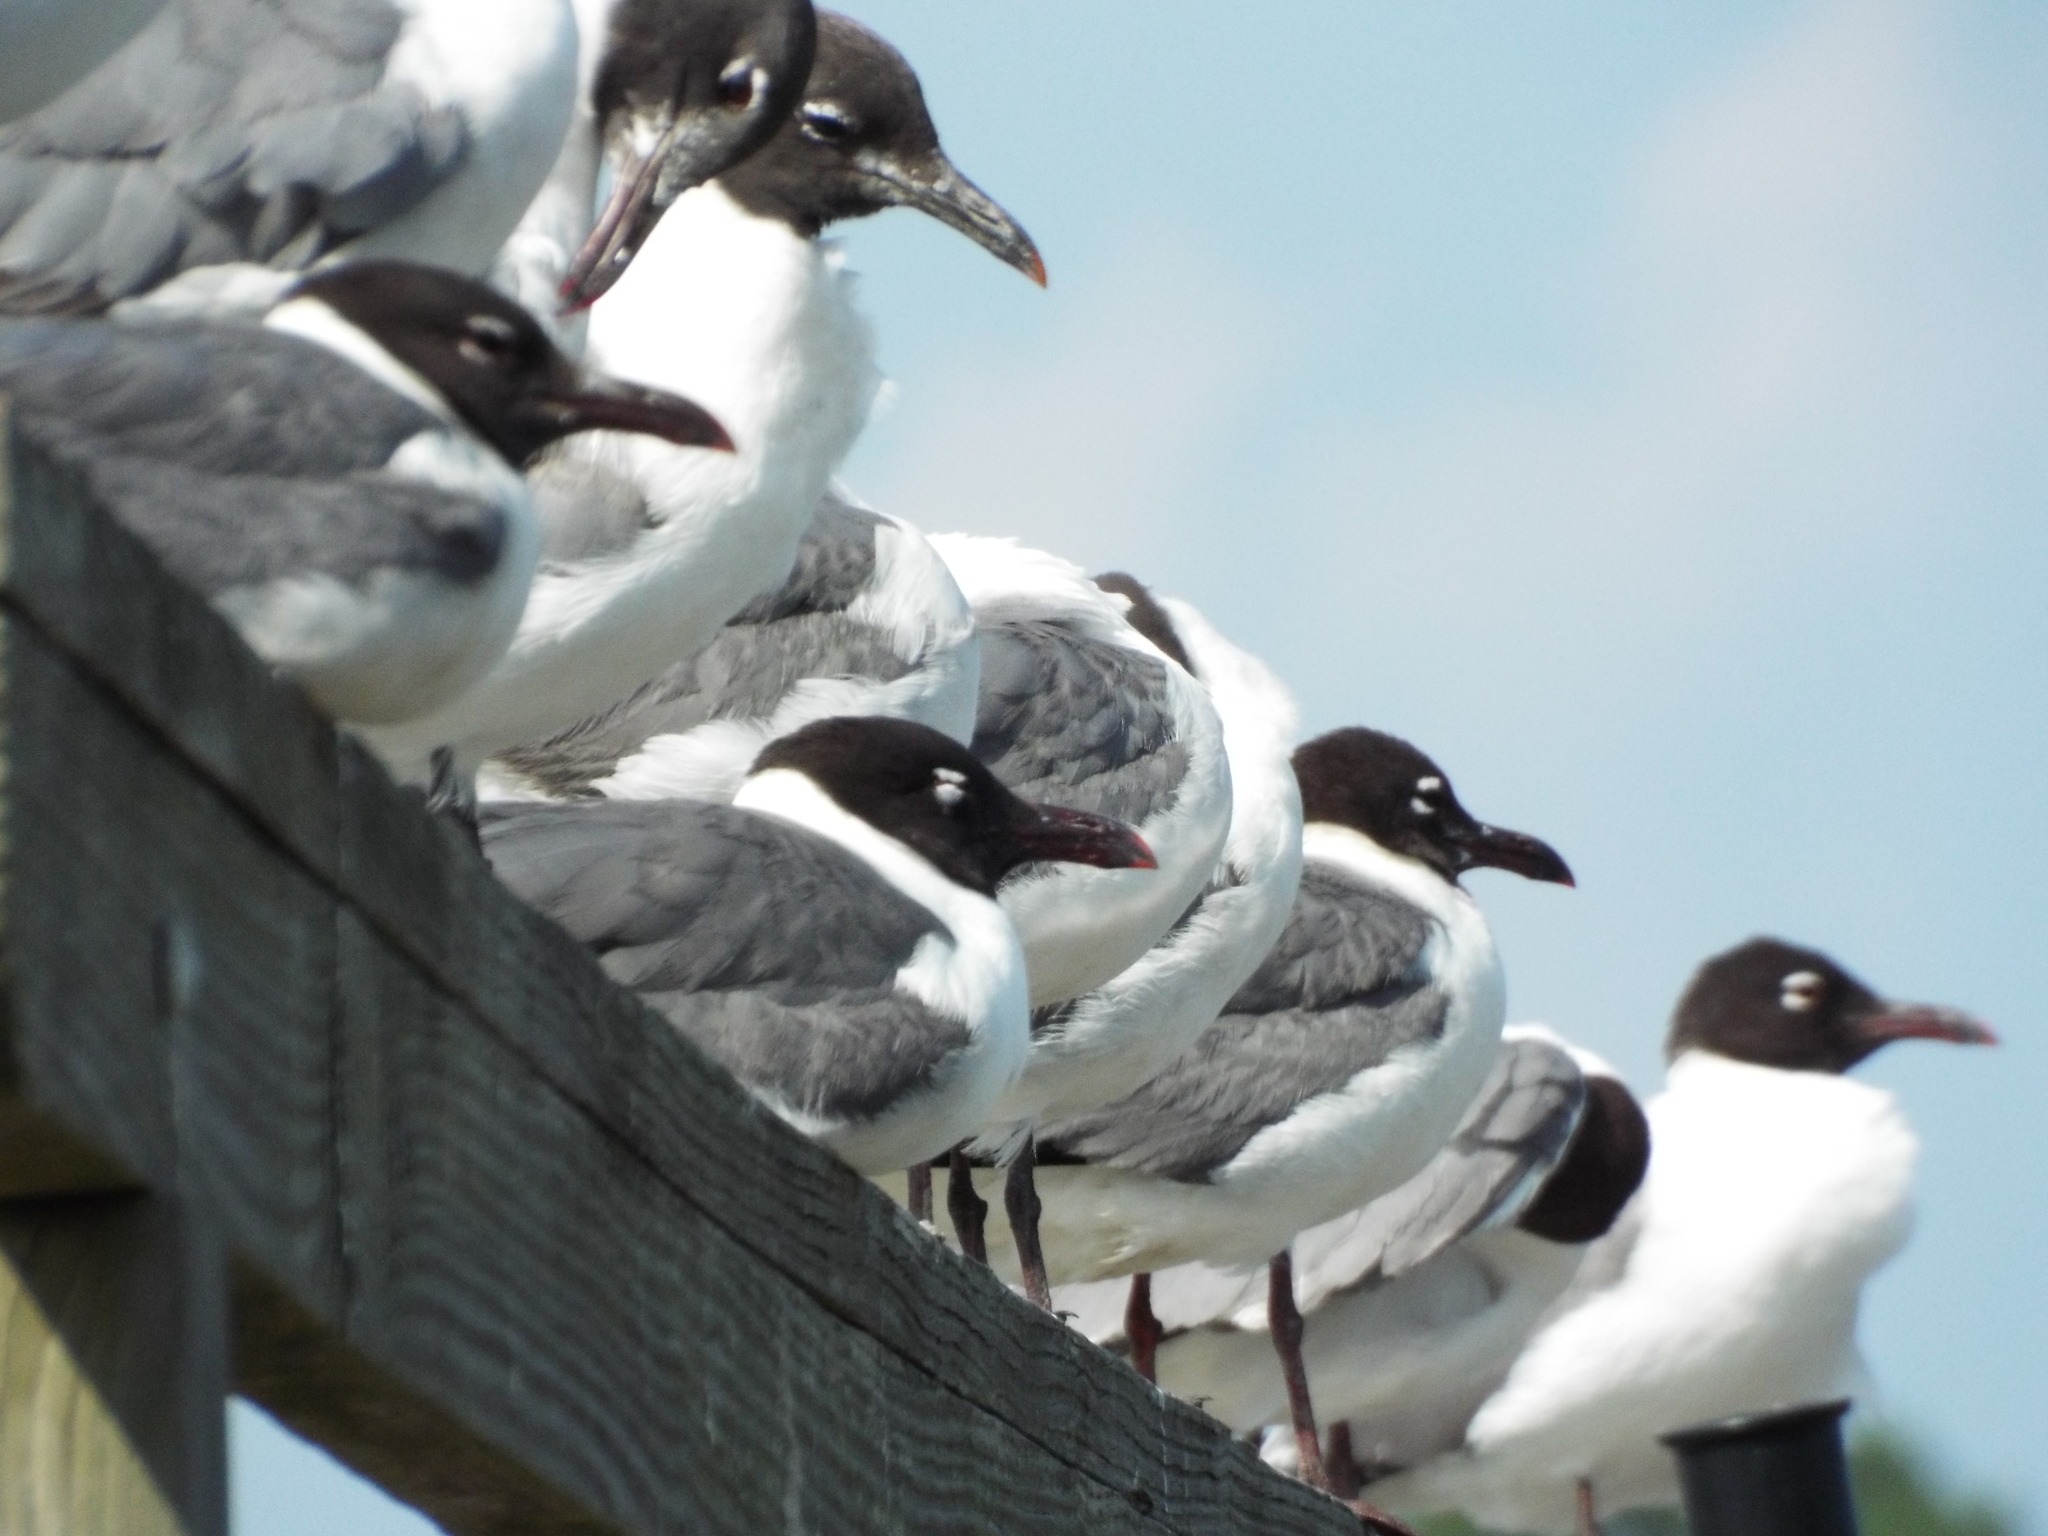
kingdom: Animalia
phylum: Chordata
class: Aves
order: Charadriiformes
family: Laridae
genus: Leucophaeus
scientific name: Leucophaeus atricilla
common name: Laughing gull
